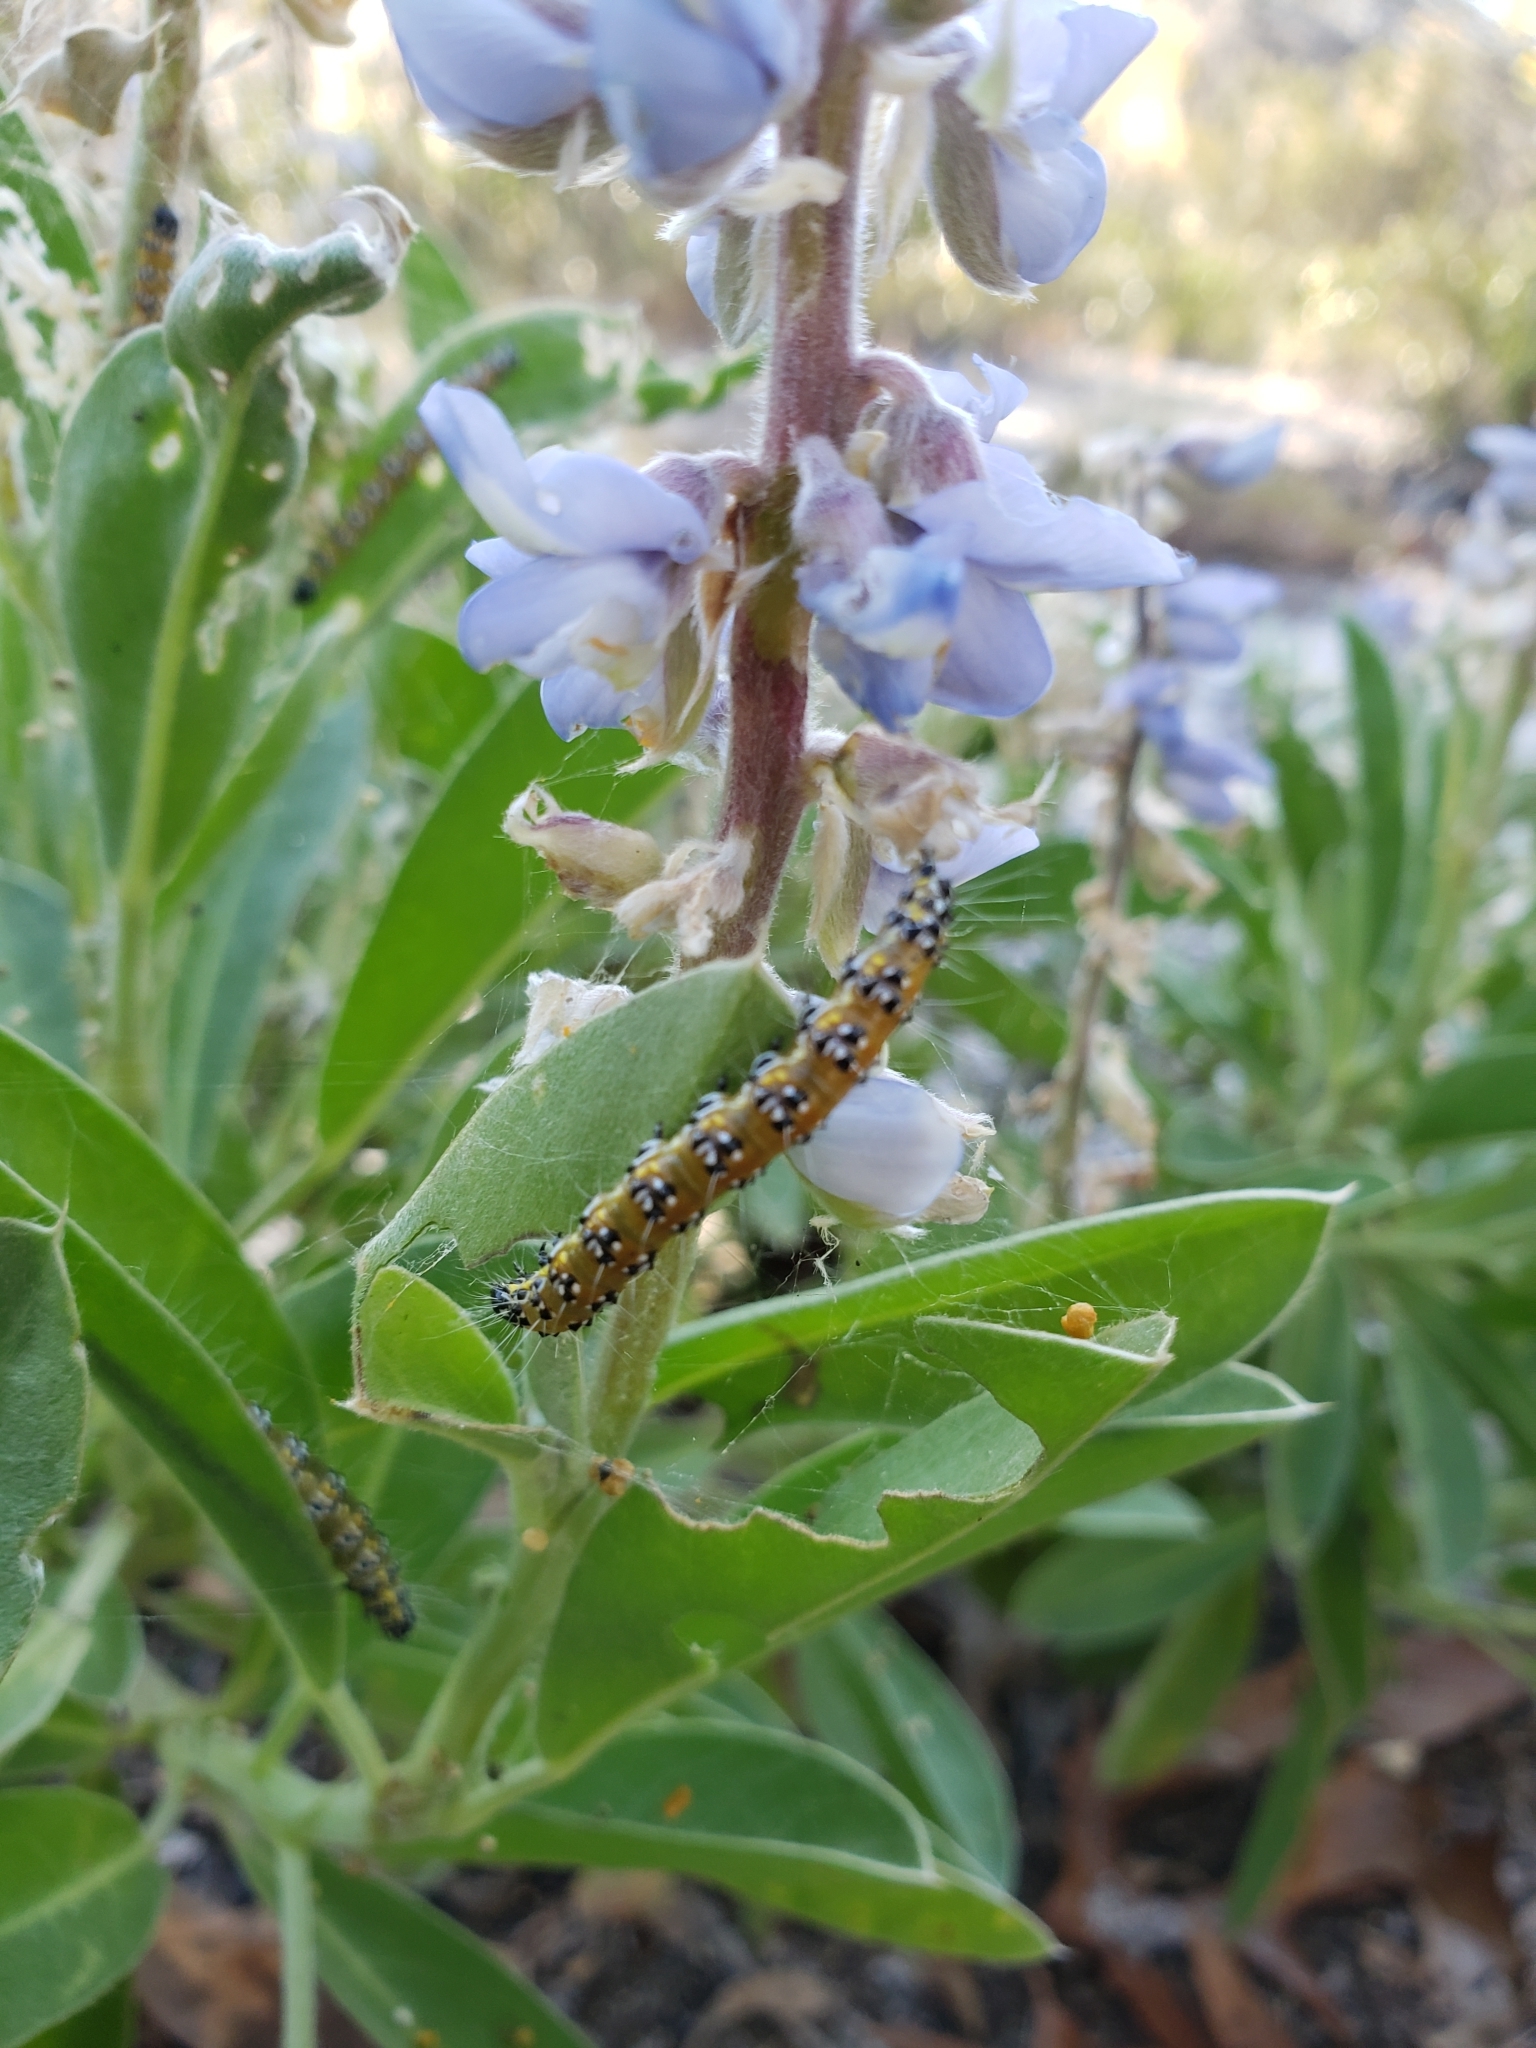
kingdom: Animalia
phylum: Arthropoda
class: Insecta
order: Lepidoptera
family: Crambidae
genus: Uresiphita
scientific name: Uresiphita reversalis
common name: Genista broom moth
